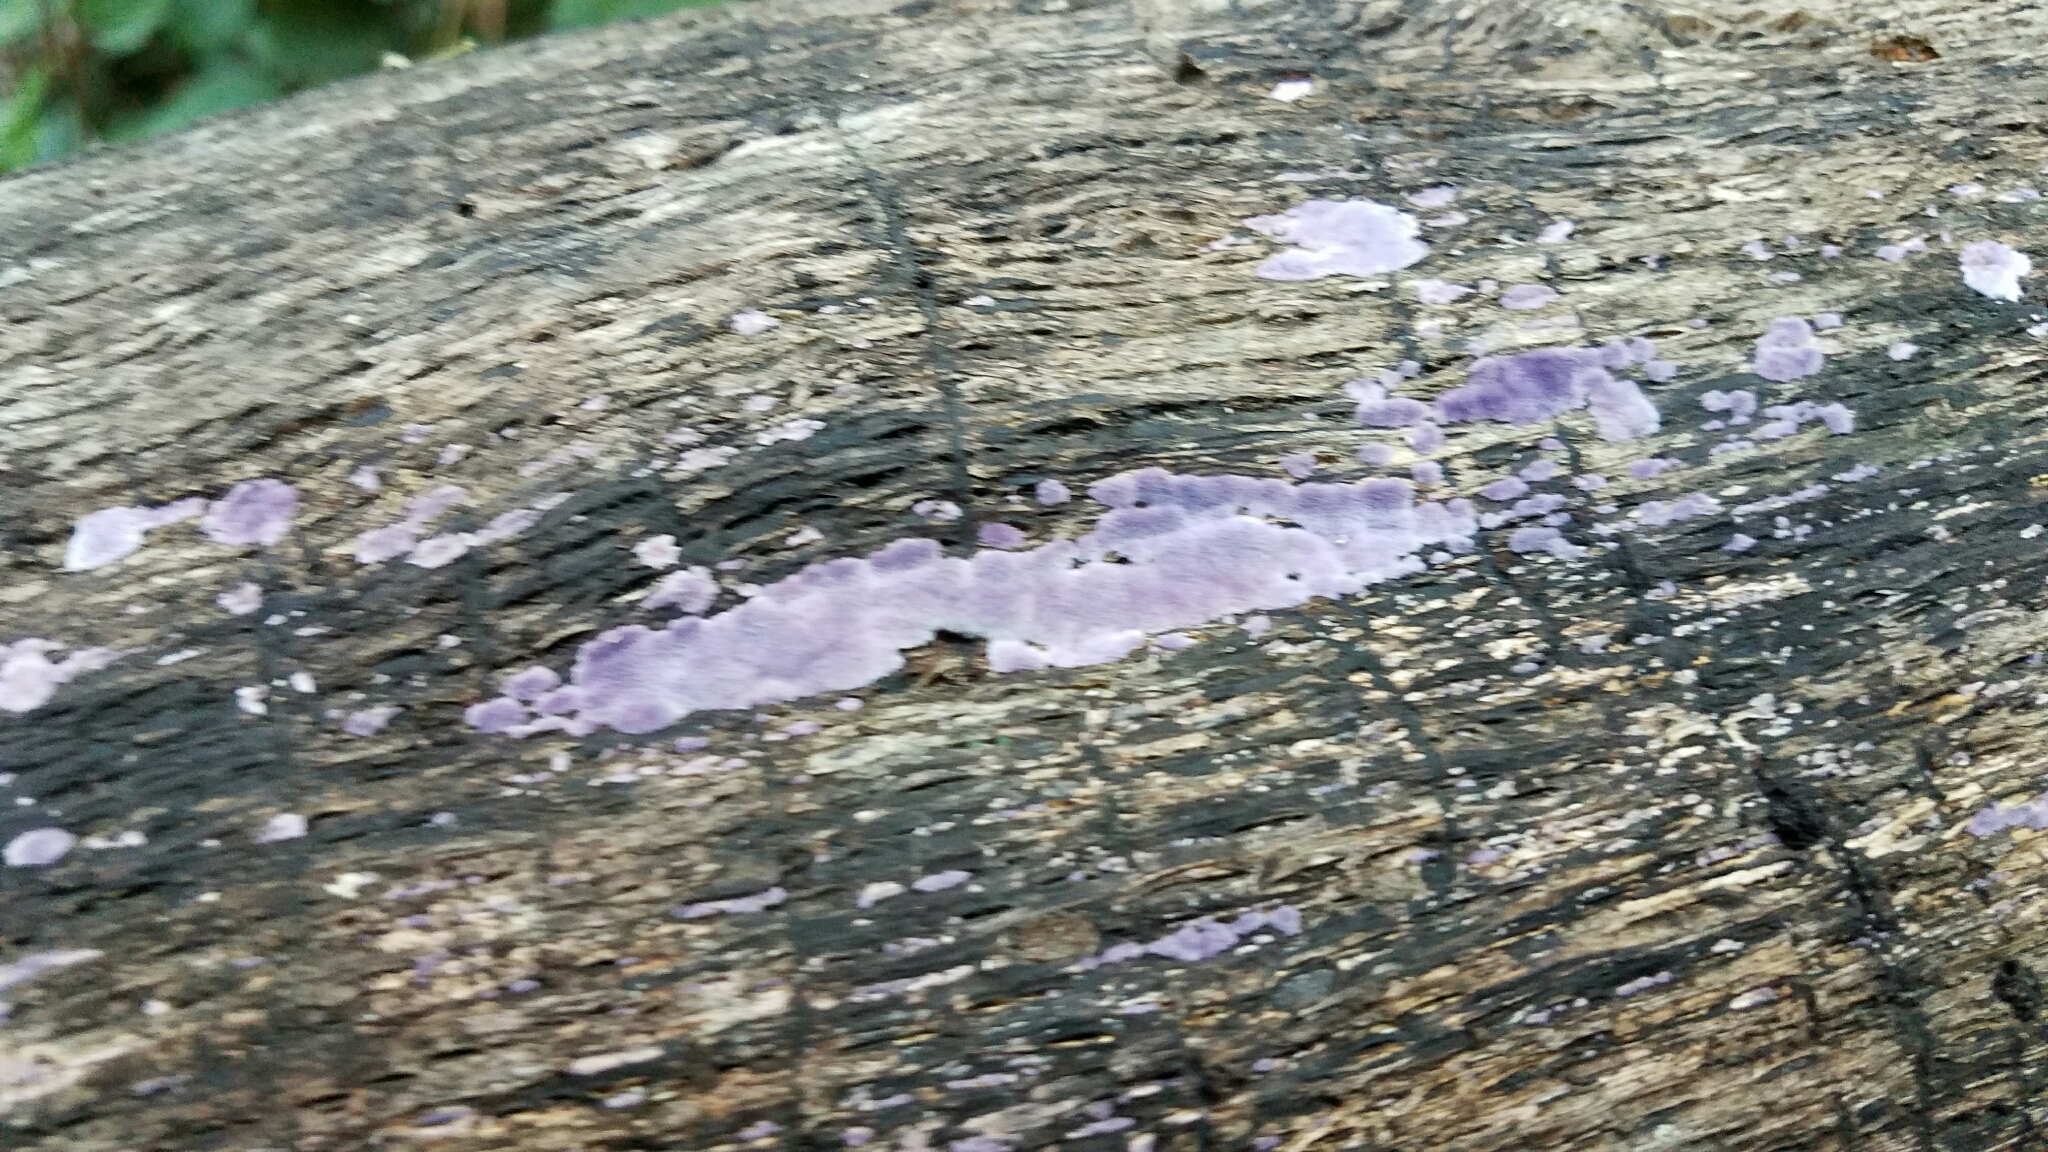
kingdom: Fungi
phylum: Basidiomycota
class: Agaricomycetes
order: Corticiales
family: Punctulariaceae
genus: Punctularia
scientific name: Punctularia atropurpurascens
